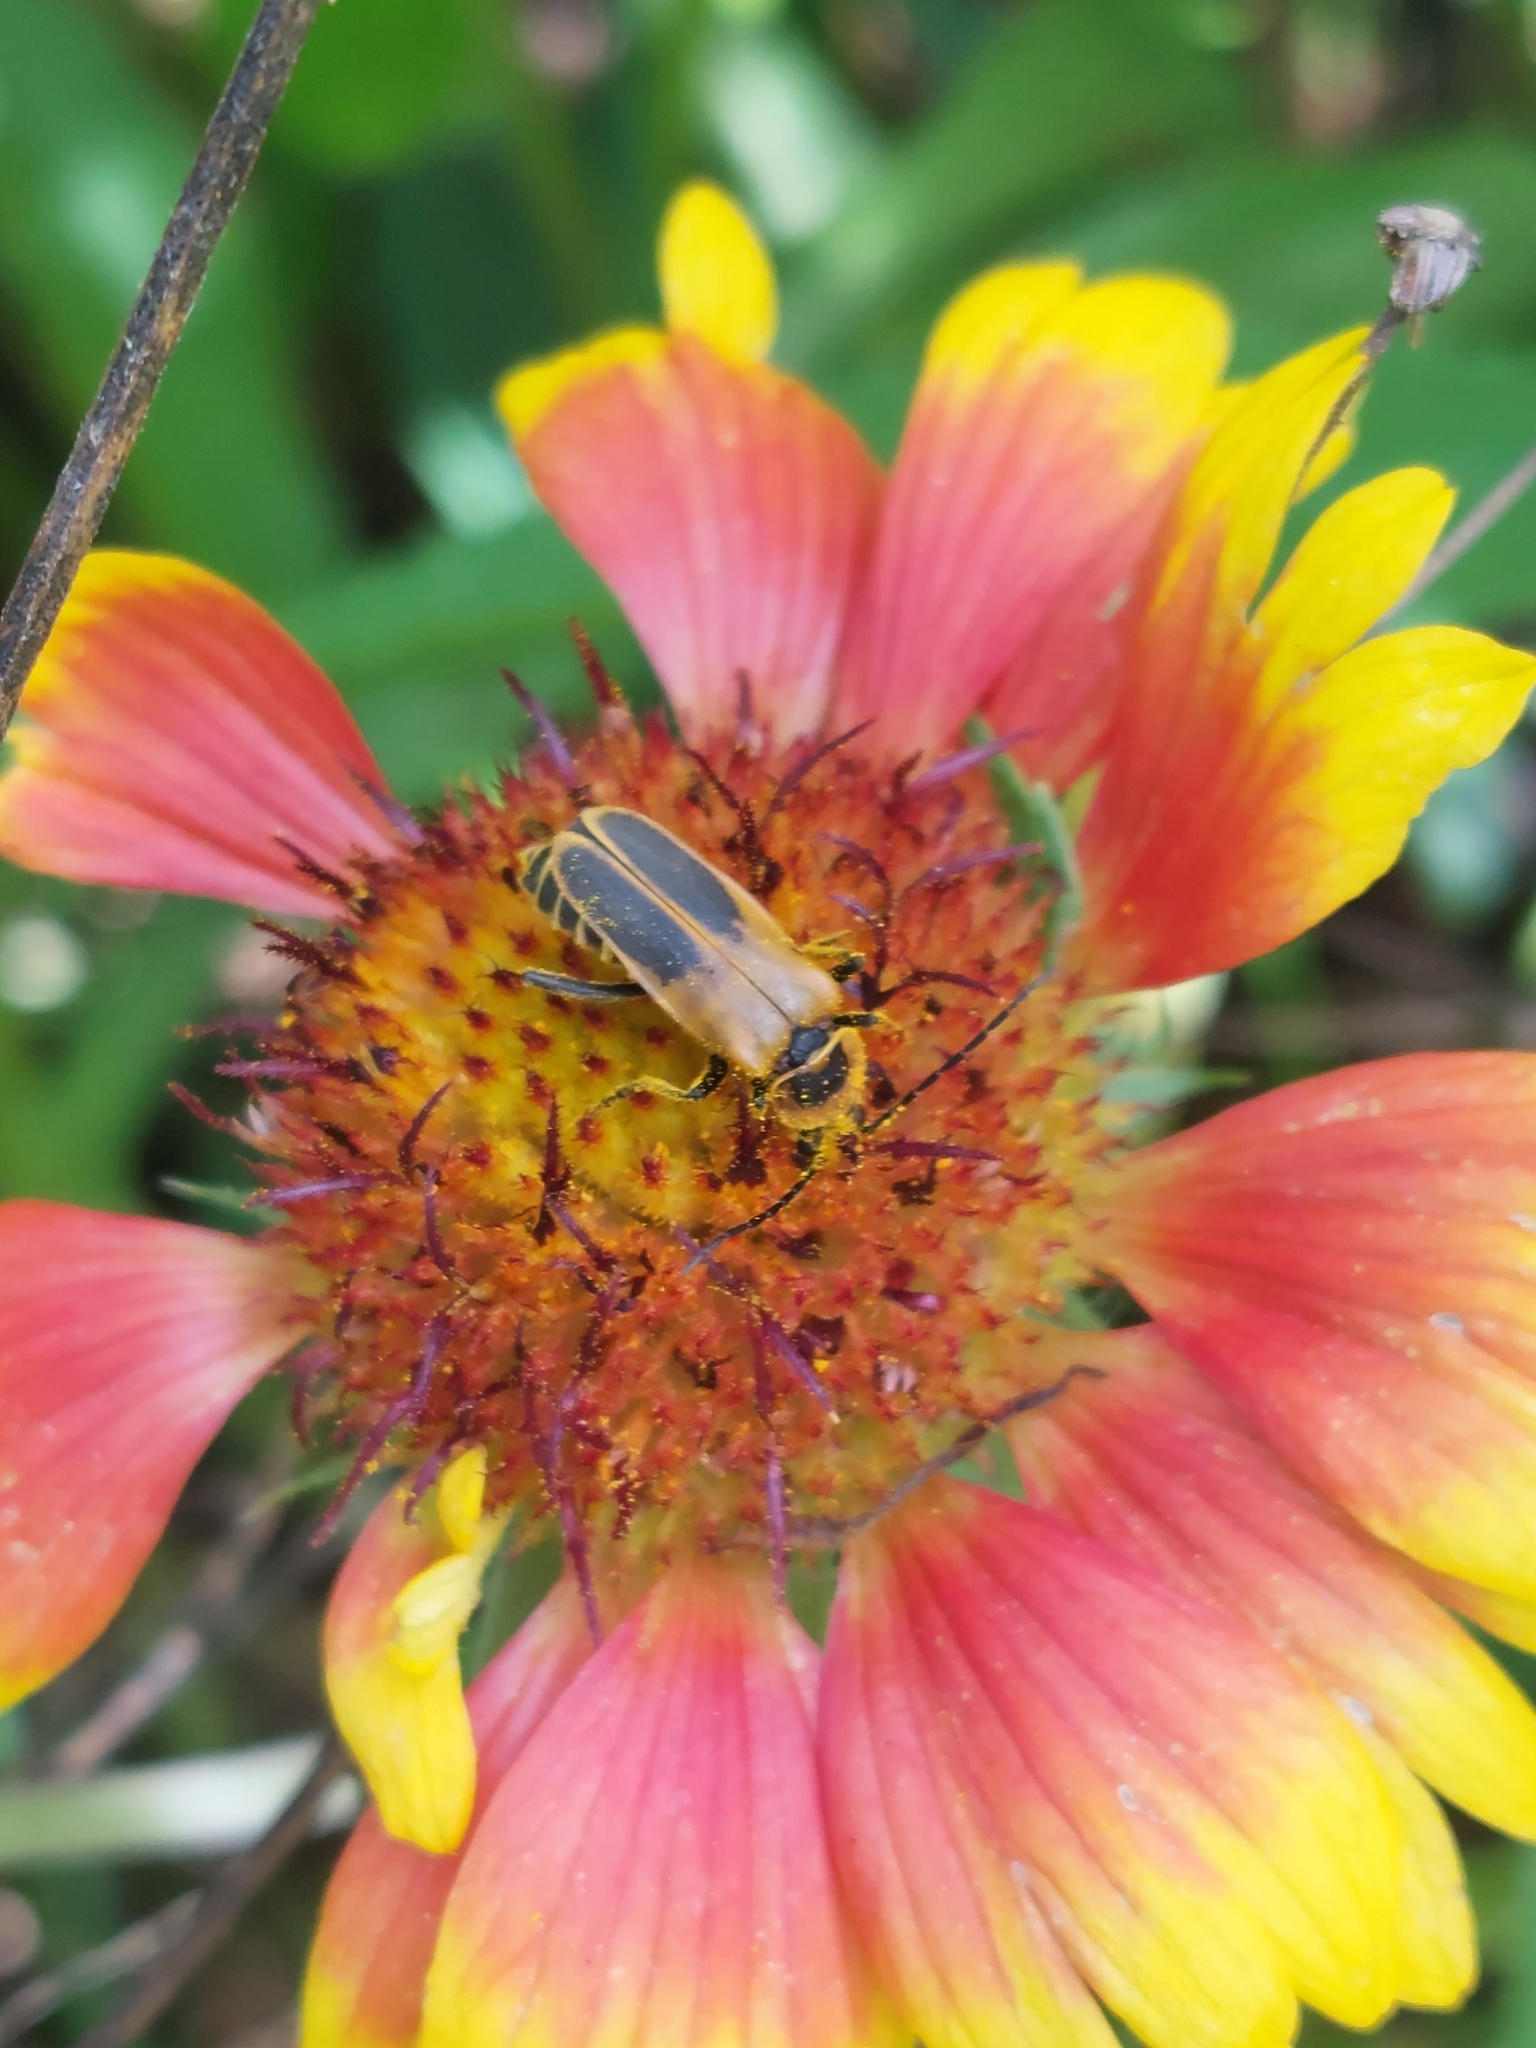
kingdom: Animalia
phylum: Arthropoda
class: Insecta
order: Coleoptera
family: Cantharidae
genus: Chauliognathus
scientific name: Chauliognathus pensylvanicus
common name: Goldenrod soldier beetle
